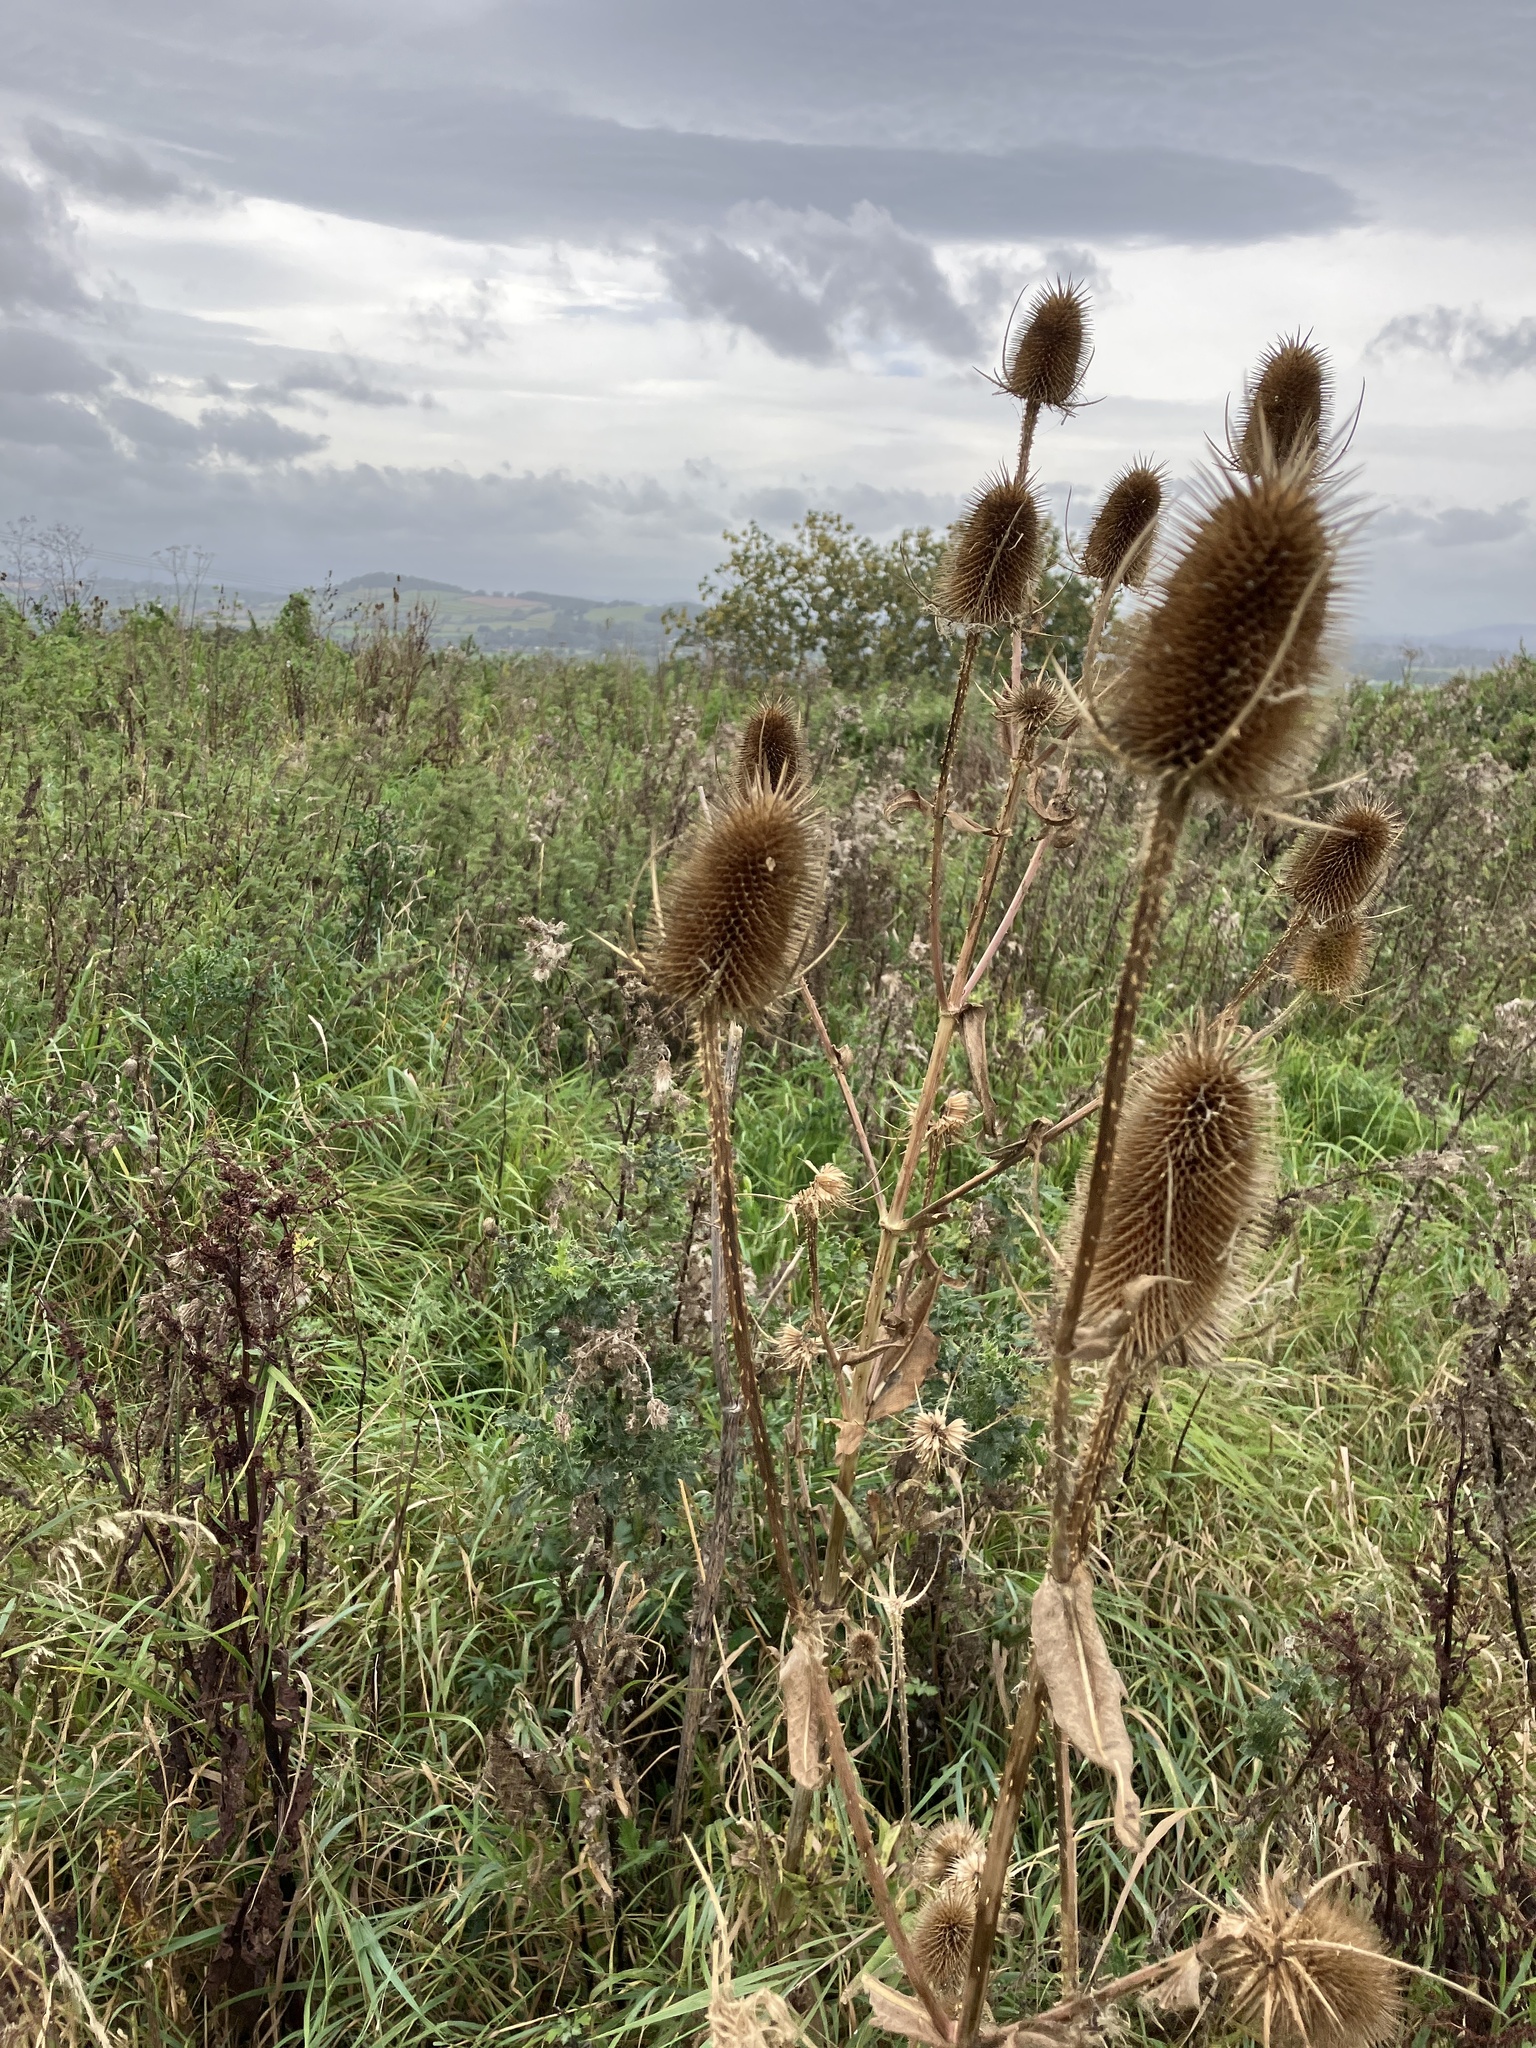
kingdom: Plantae
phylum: Tracheophyta
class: Magnoliopsida
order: Dipsacales
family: Caprifoliaceae
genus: Dipsacus
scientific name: Dipsacus fullonum
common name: Teasel
